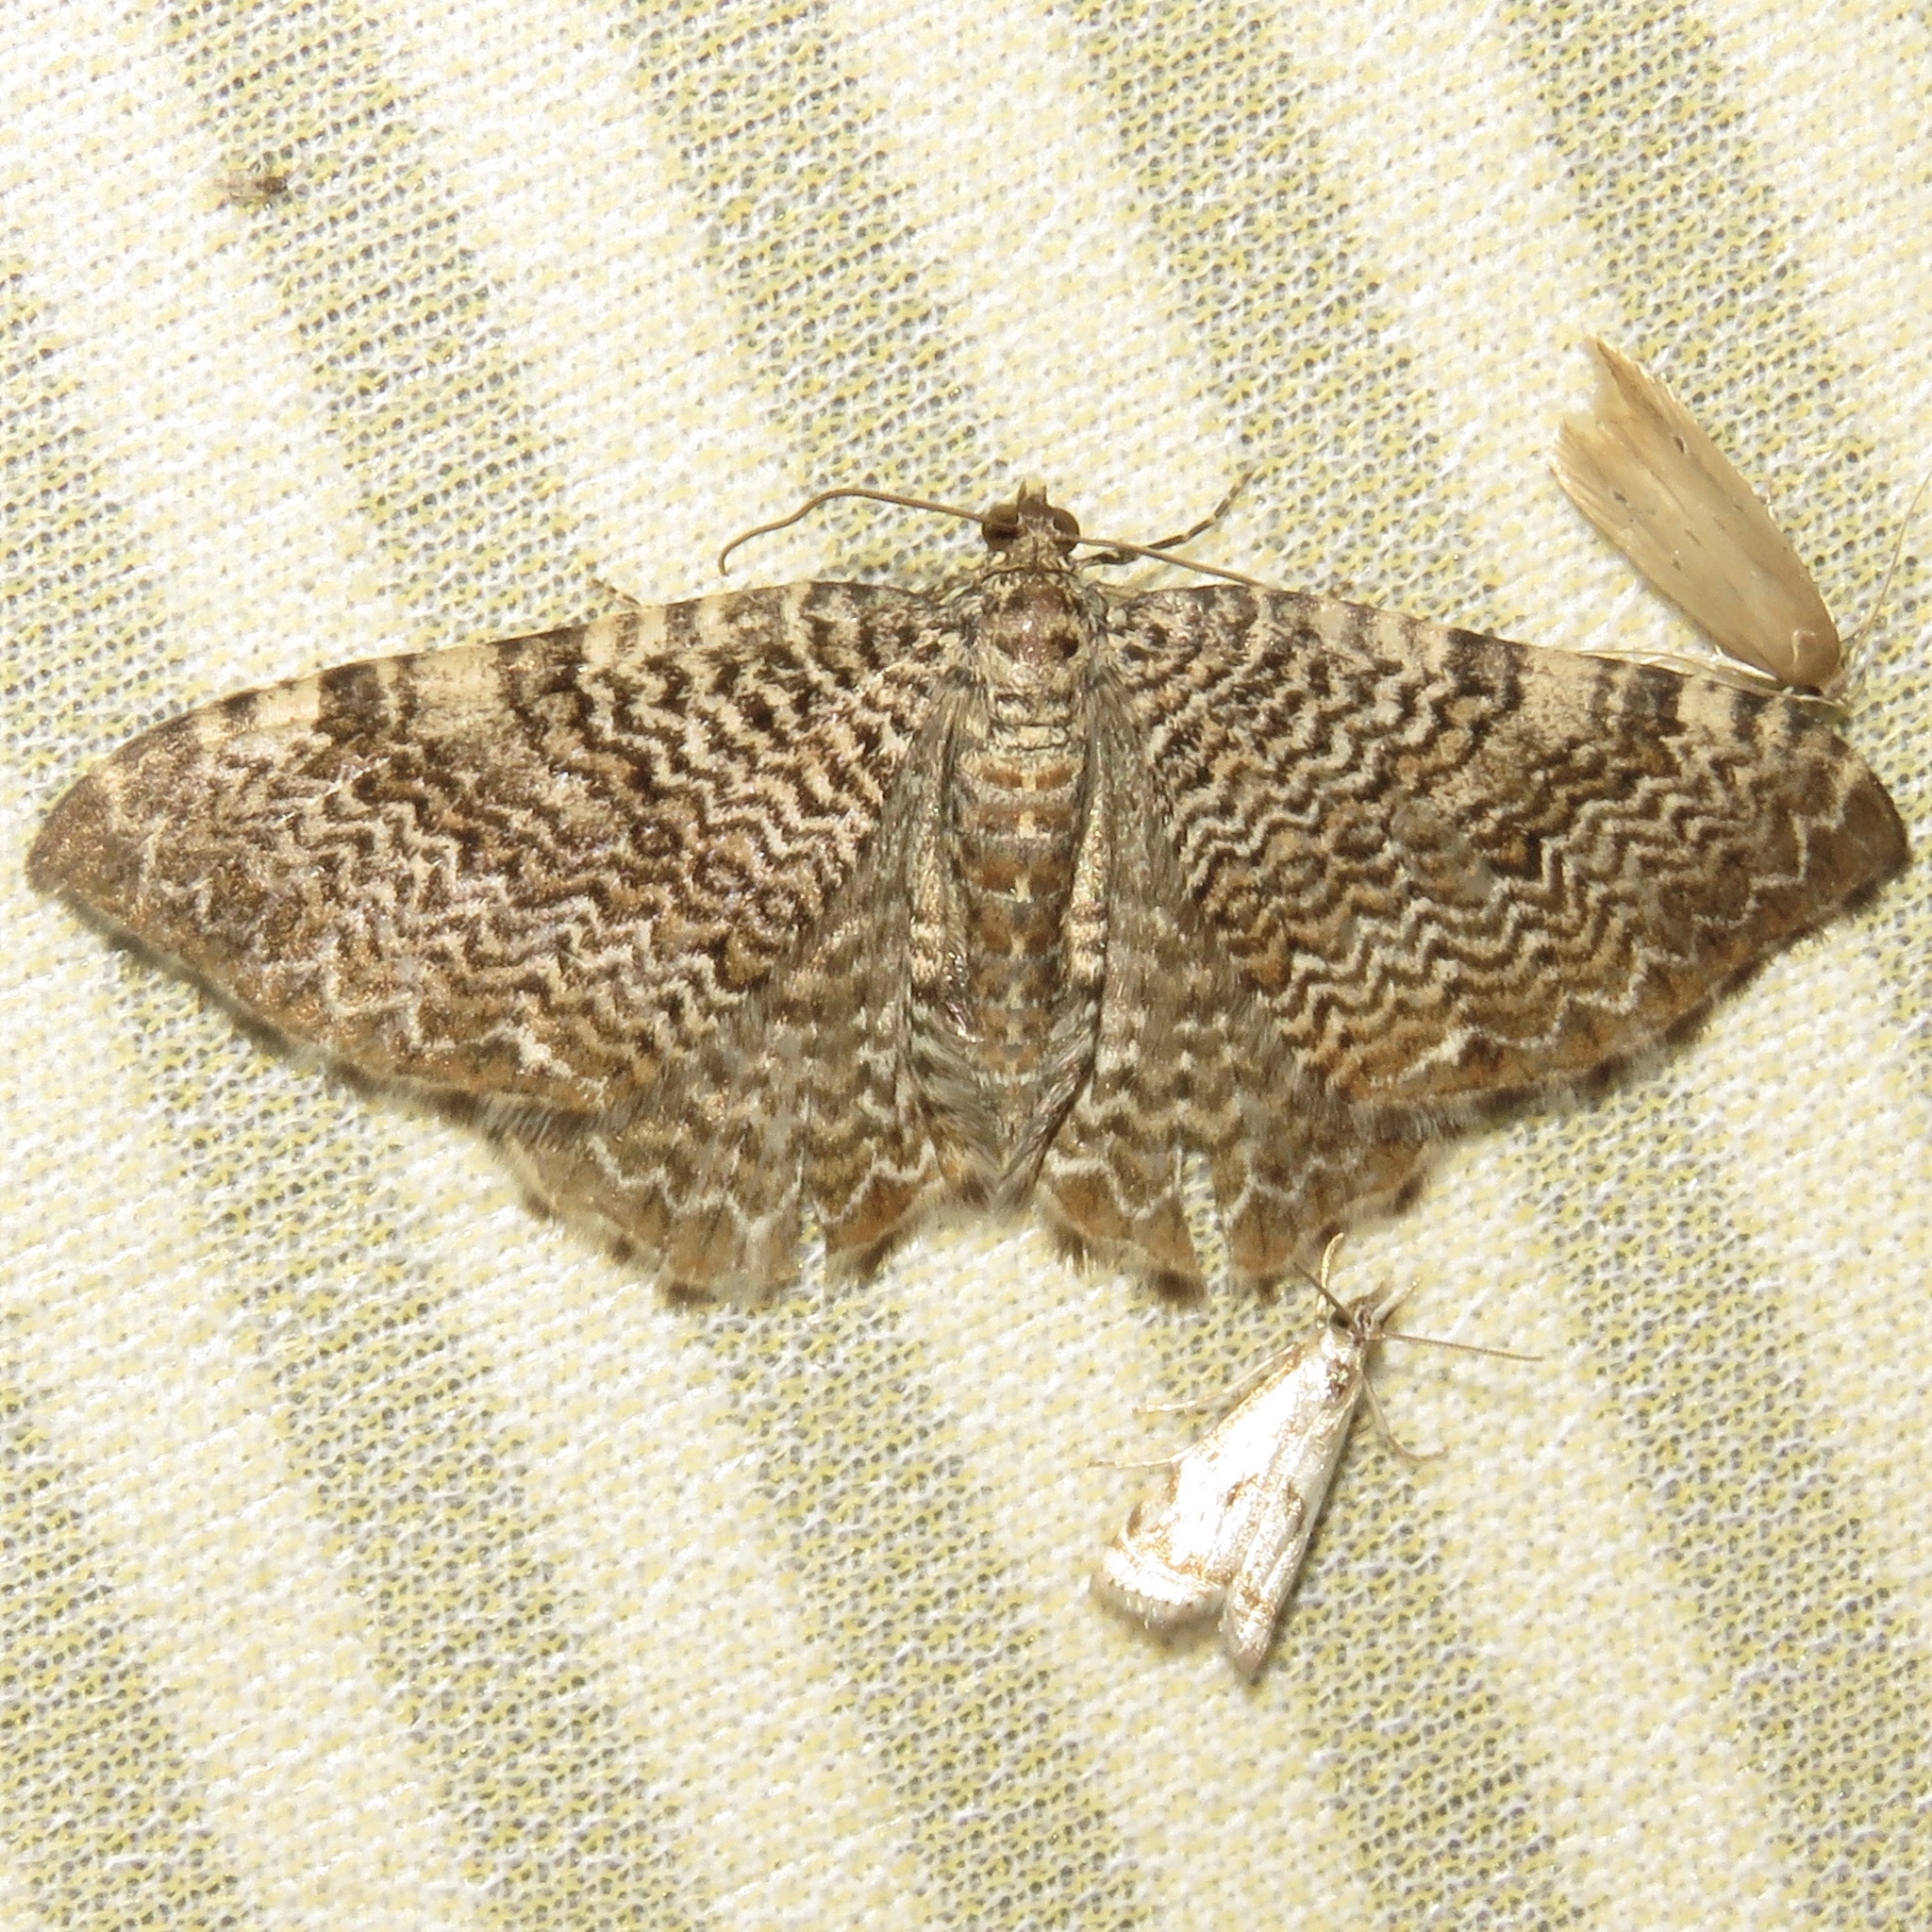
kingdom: Animalia
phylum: Arthropoda
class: Insecta
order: Lepidoptera
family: Geometridae
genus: Rheumaptera
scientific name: Rheumaptera
